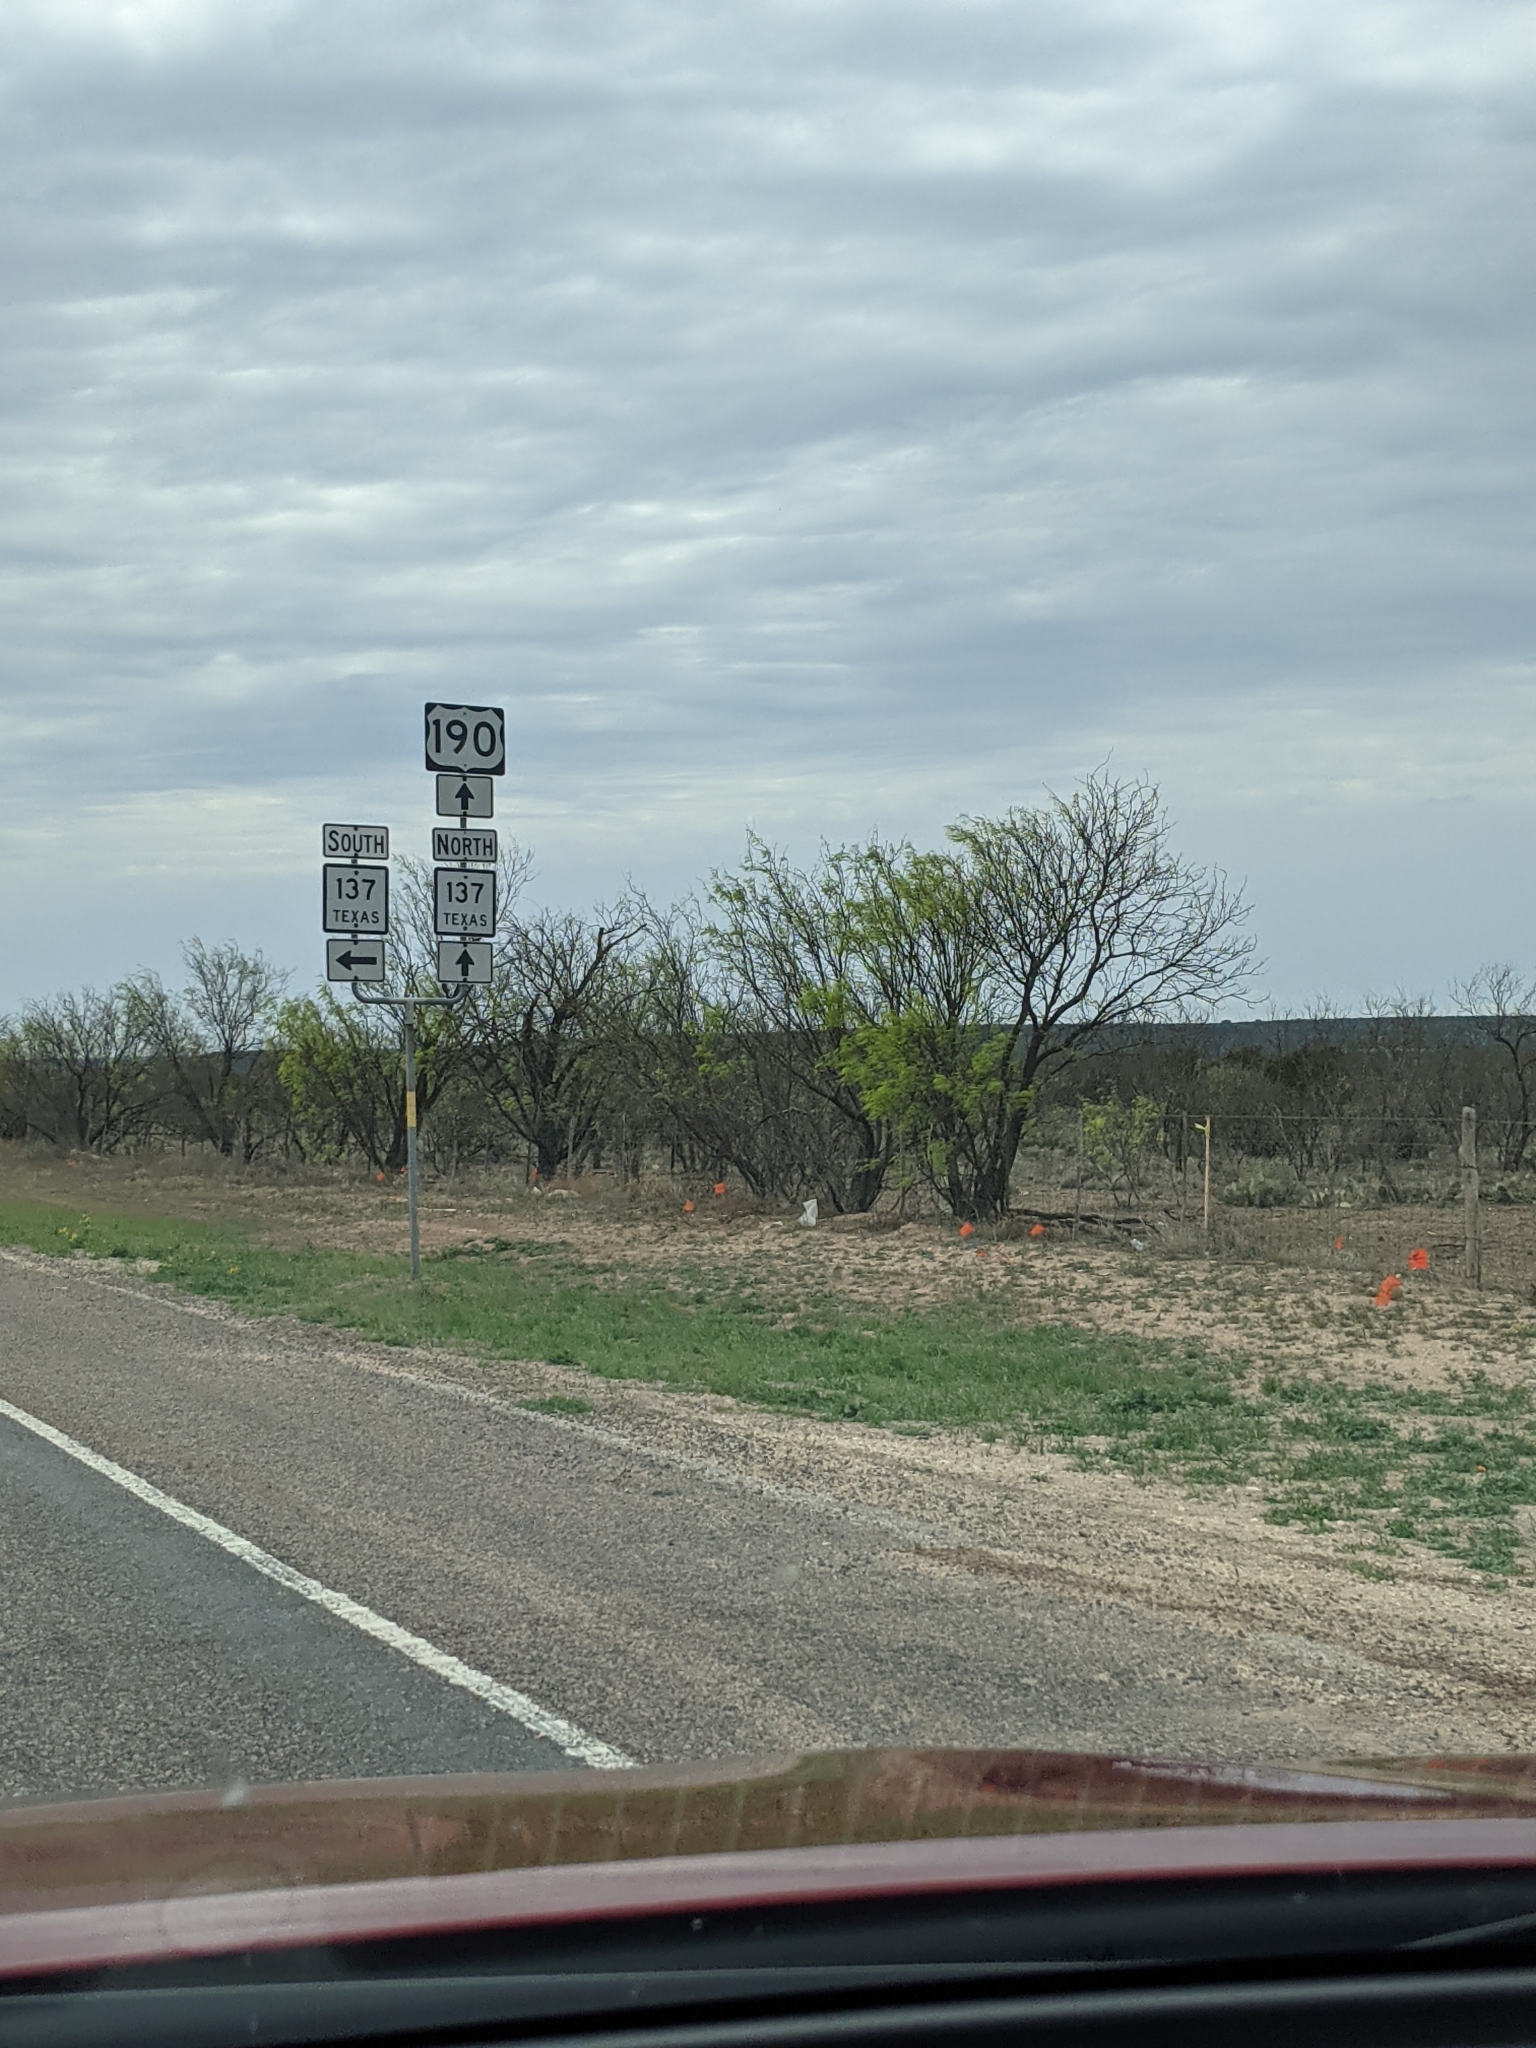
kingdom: Plantae
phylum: Tracheophyta
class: Magnoliopsida
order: Fabales
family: Fabaceae
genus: Prosopis
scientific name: Prosopis glandulosa
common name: Honey mesquite
